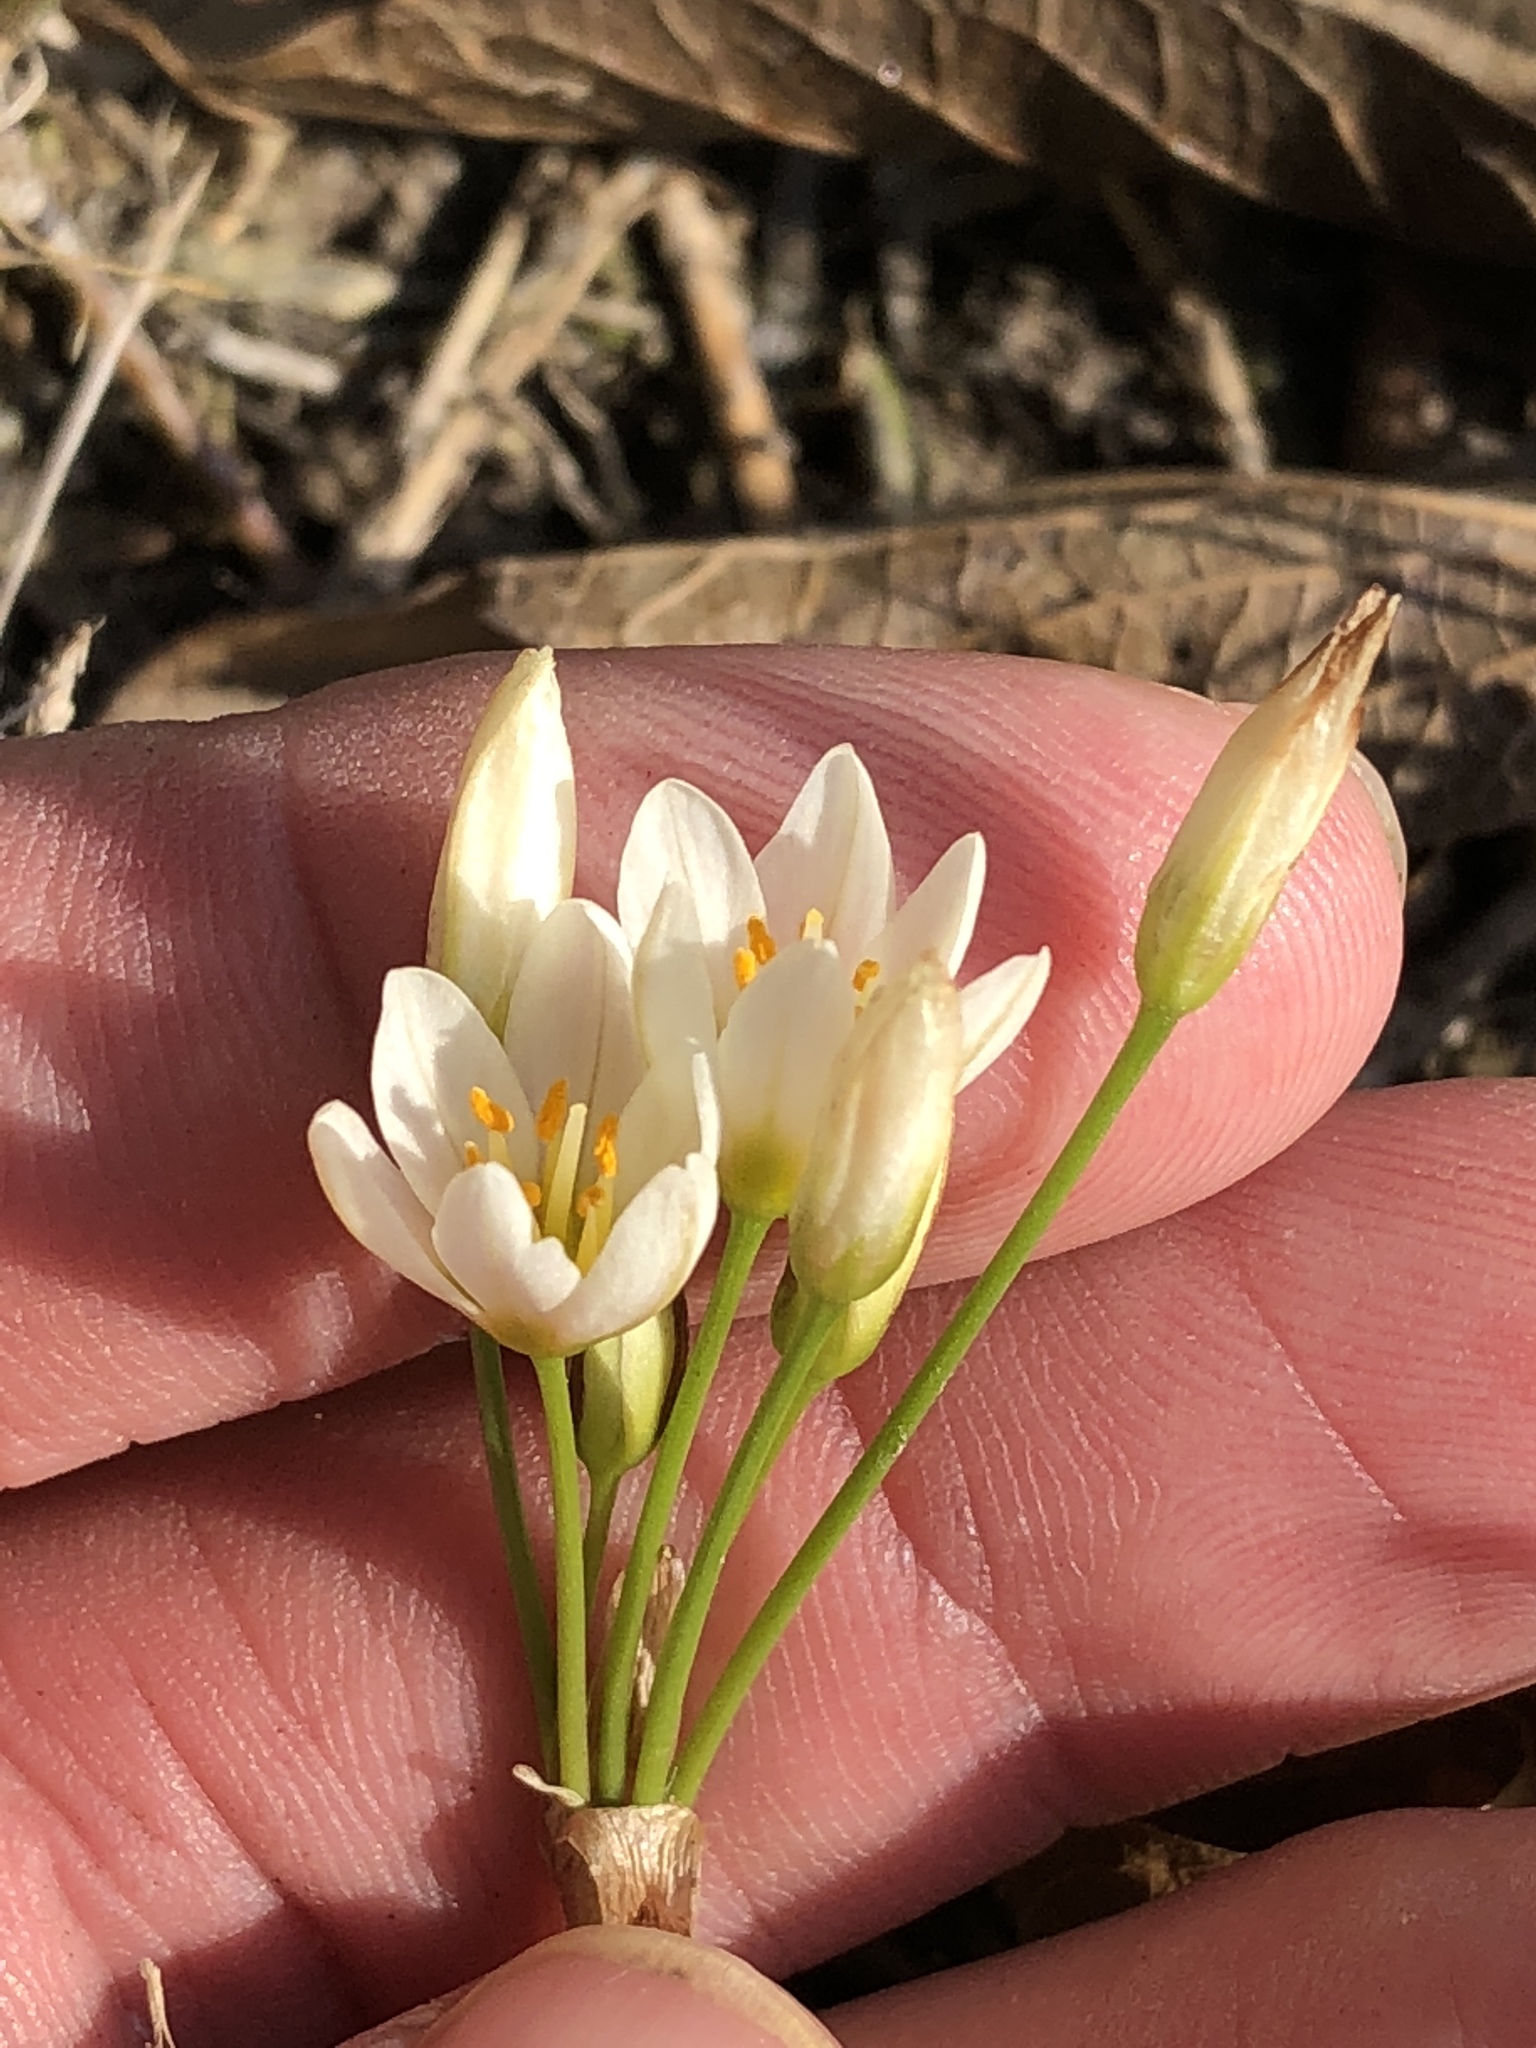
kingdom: Plantae
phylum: Tracheophyta
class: Liliopsida
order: Asparagales
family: Amaryllidaceae
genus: Nothoscordum
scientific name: Nothoscordum bivalve
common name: Crow-poison
